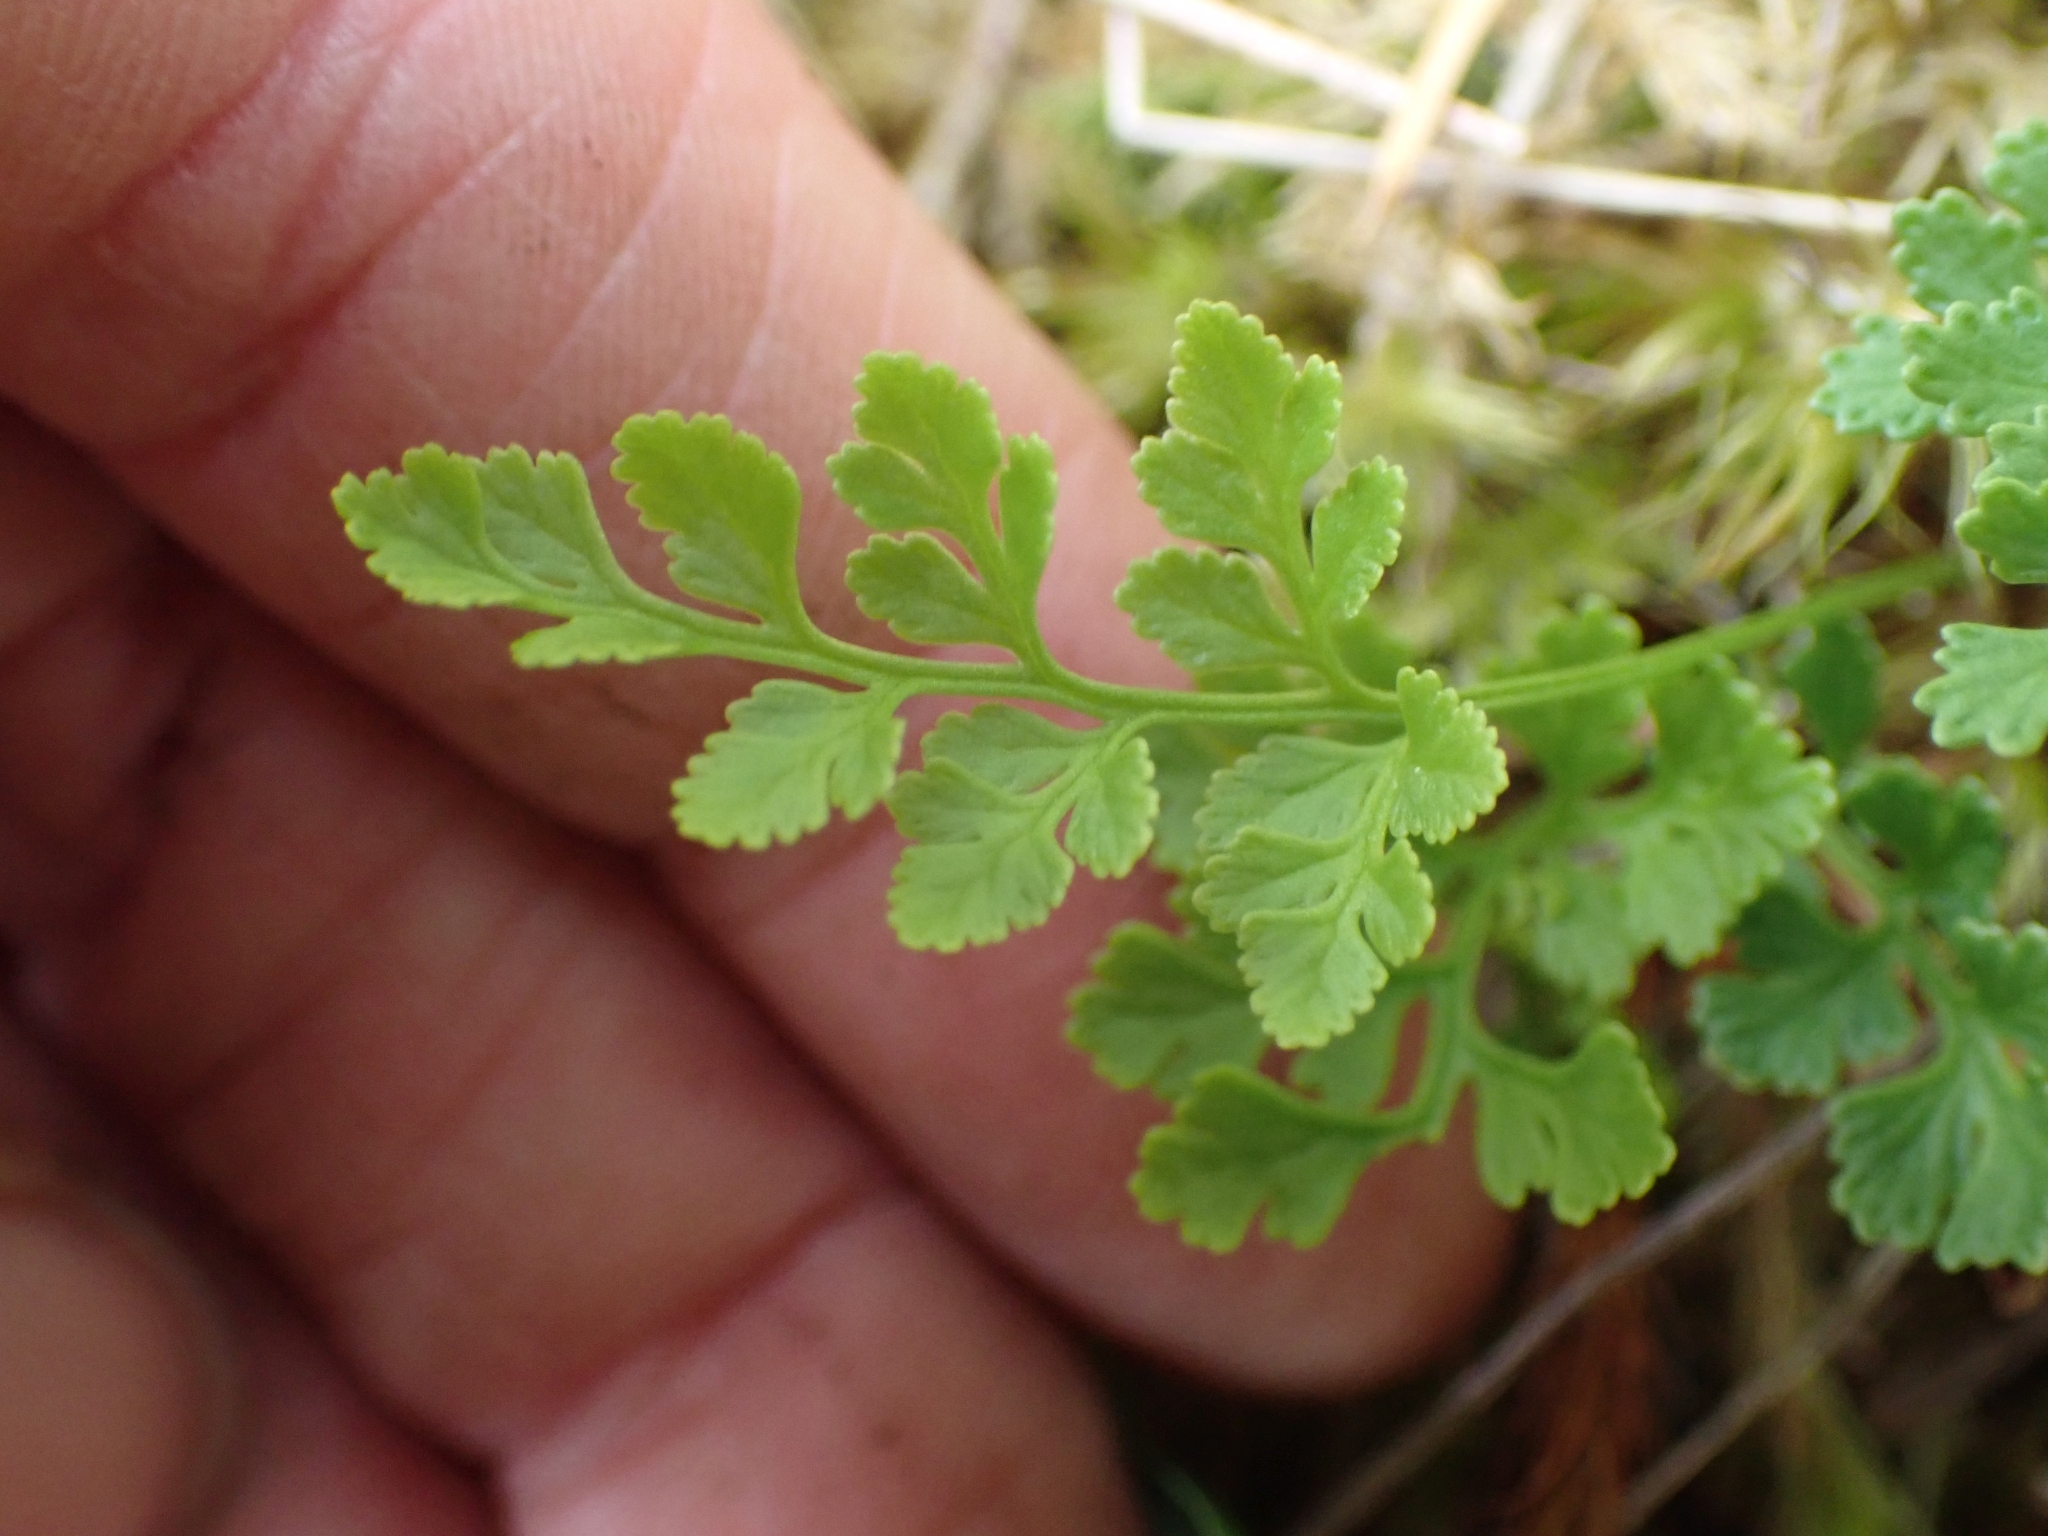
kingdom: Plantae
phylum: Tracheophyta
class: Polypodiopsida
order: Polypodiales
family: Pteridaceae
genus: Cryptogramma
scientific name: Cryptogramma acrostichoides
